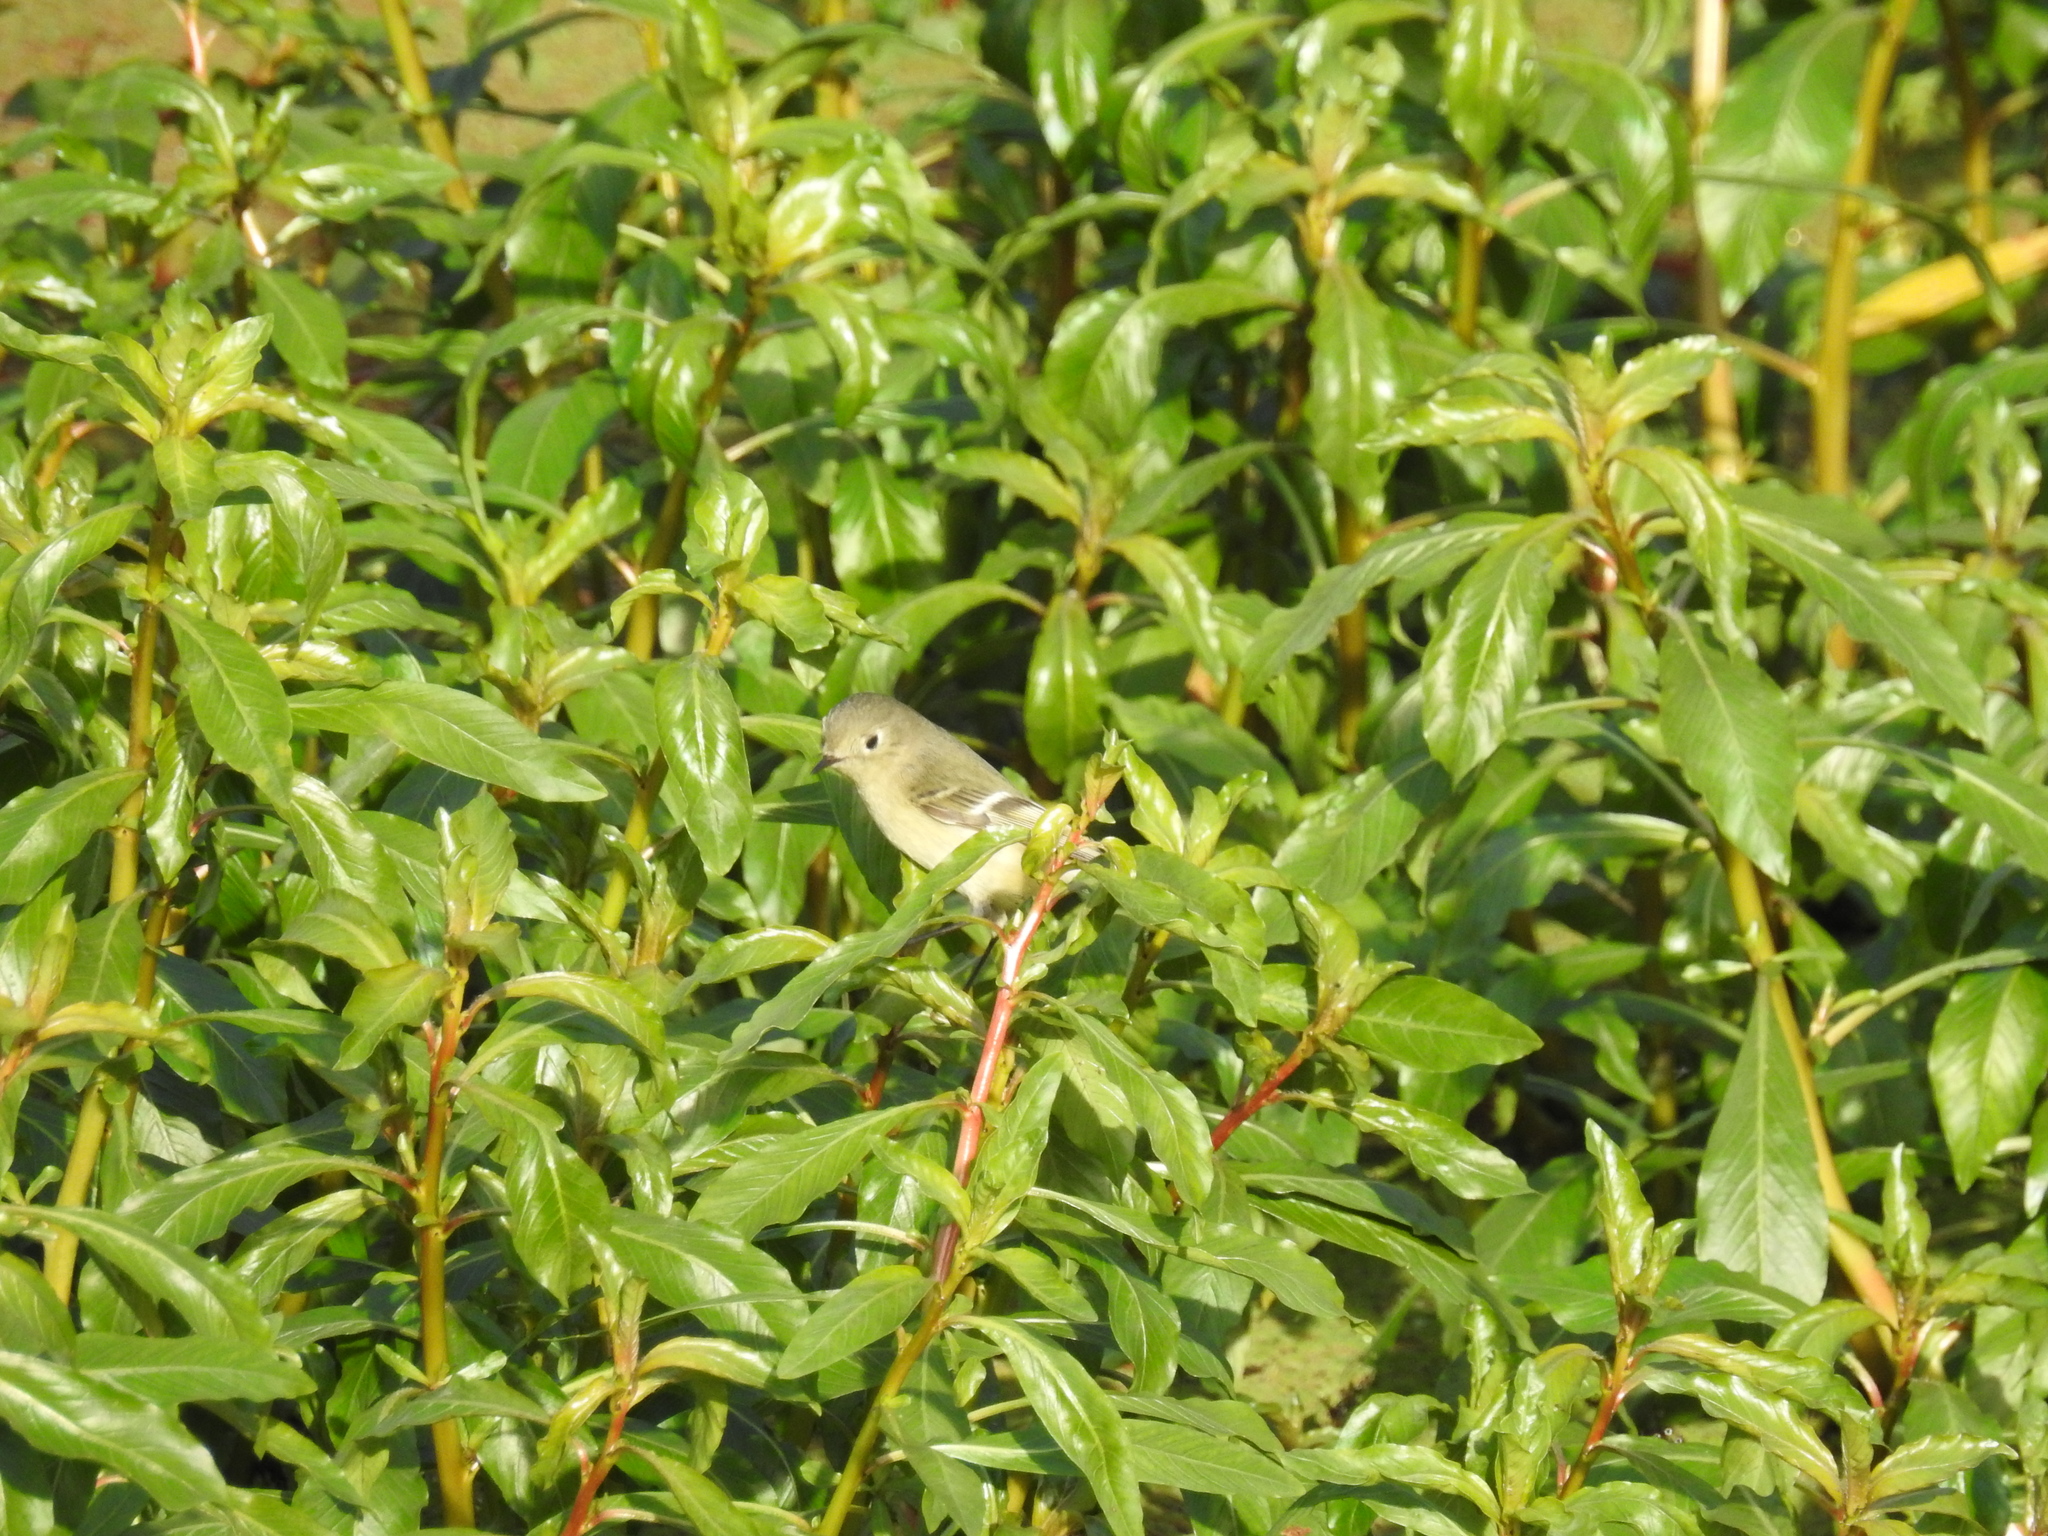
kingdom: Animalia
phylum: Chordata
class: Aves
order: Passeriformes
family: Regulidae
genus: Regulus
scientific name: Regulus calendula
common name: Ruby-crowned kinglet
